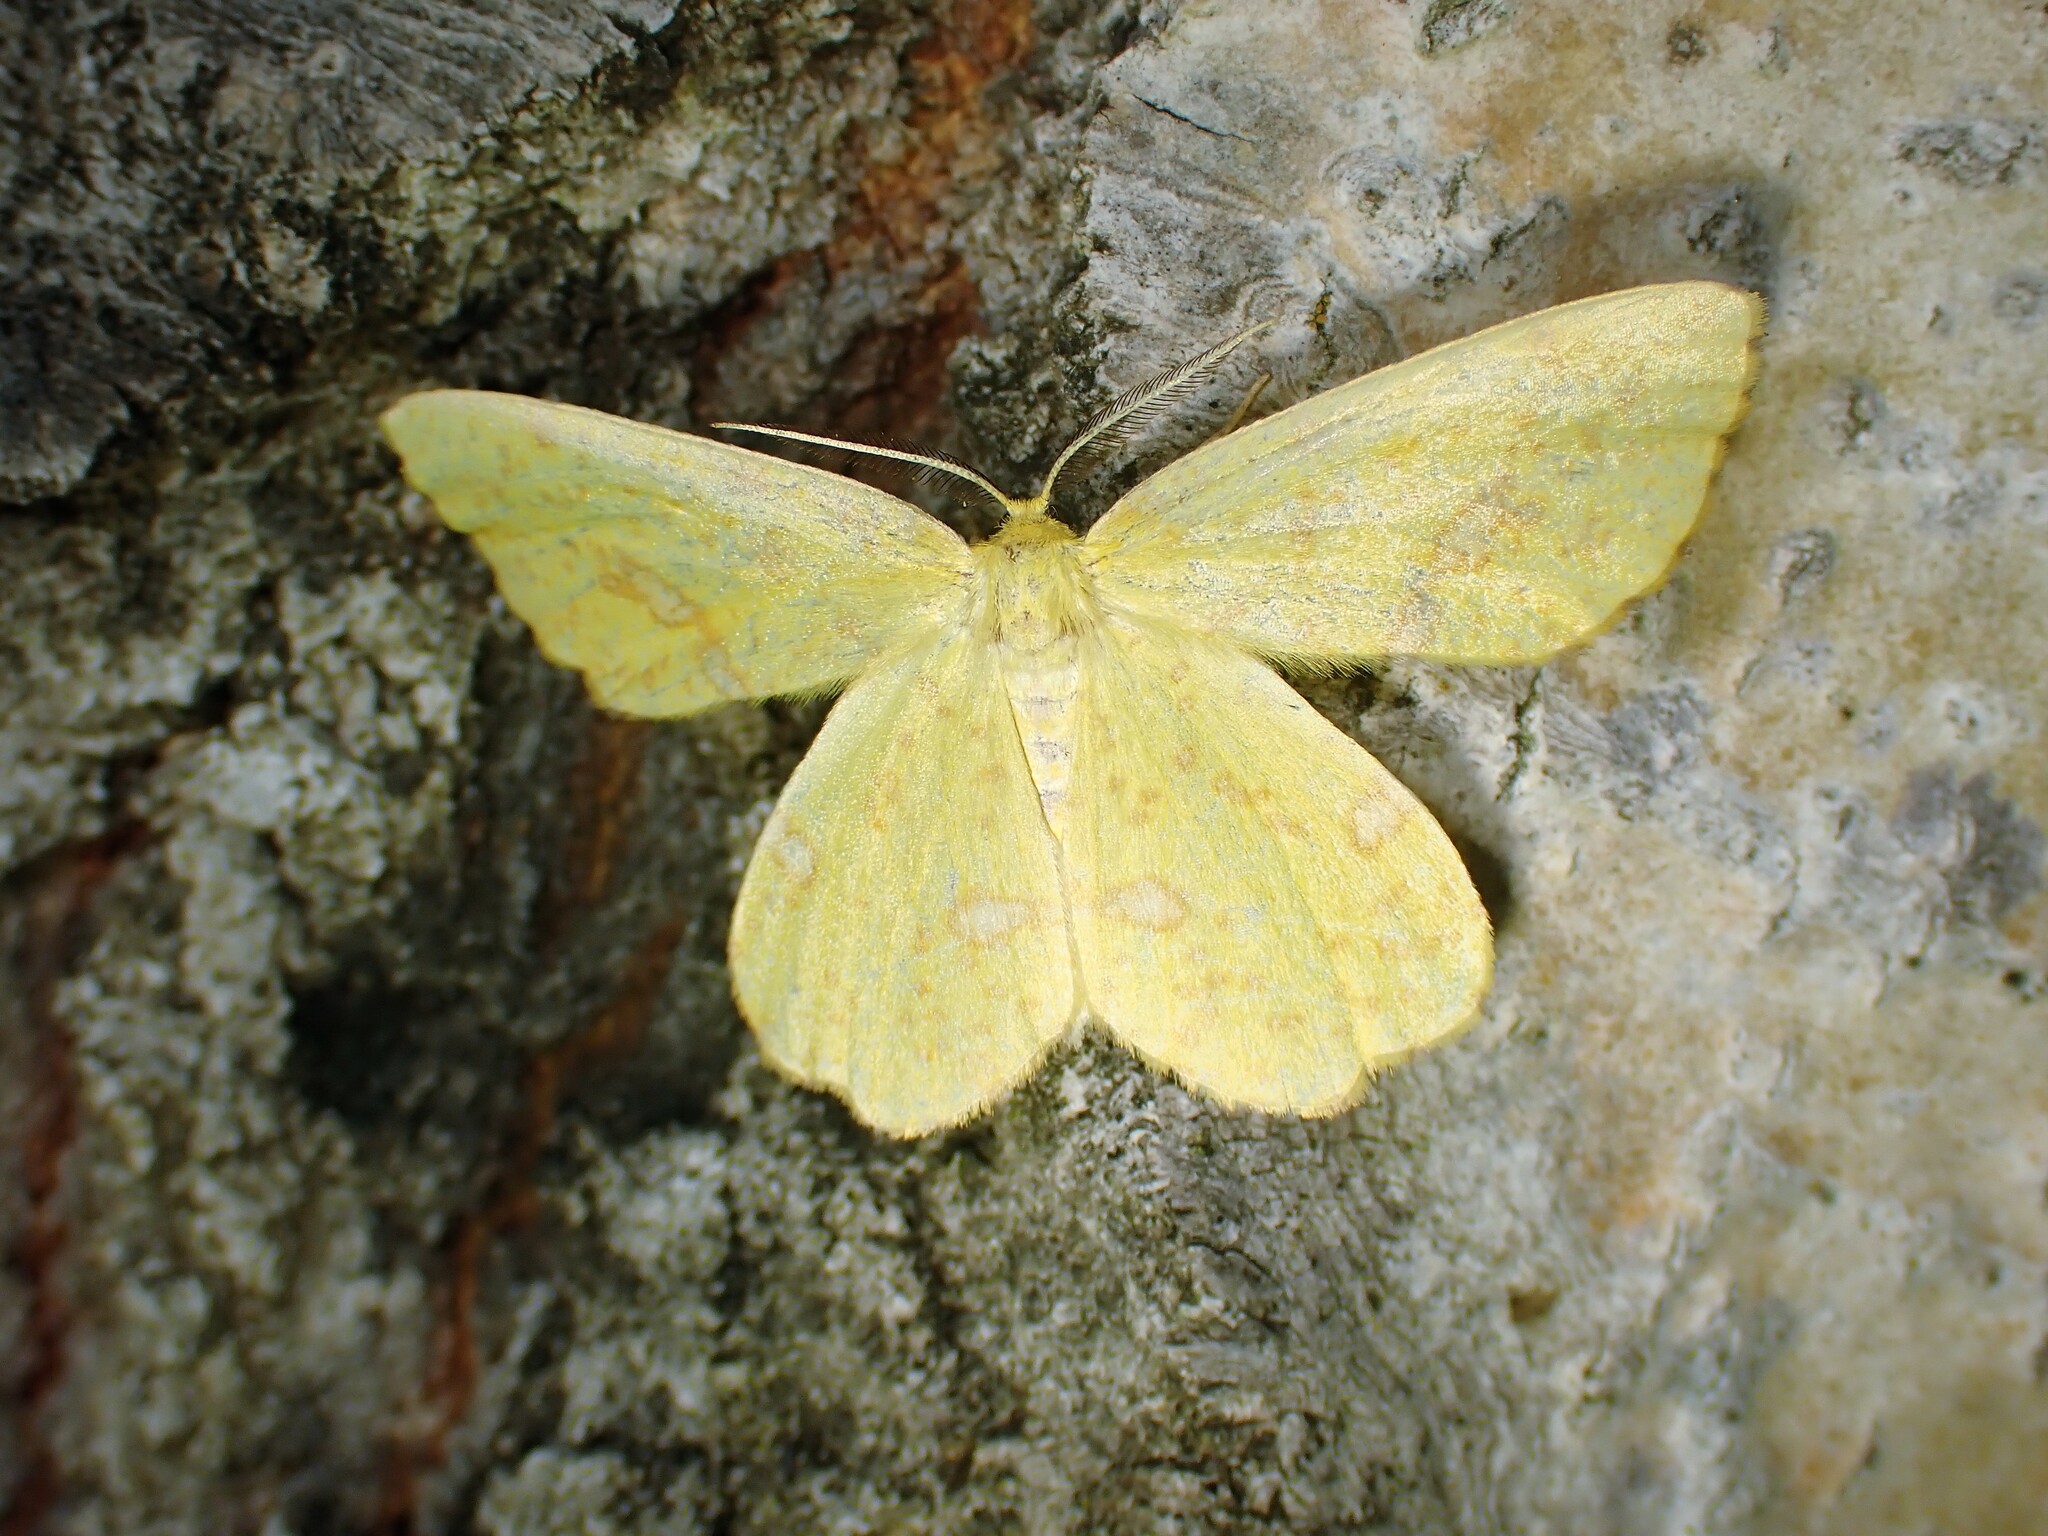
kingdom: Animalia
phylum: Arthropoda
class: Insecta
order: Lepidoptera
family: Geometridae
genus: Xanthotype
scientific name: Xanthotype
